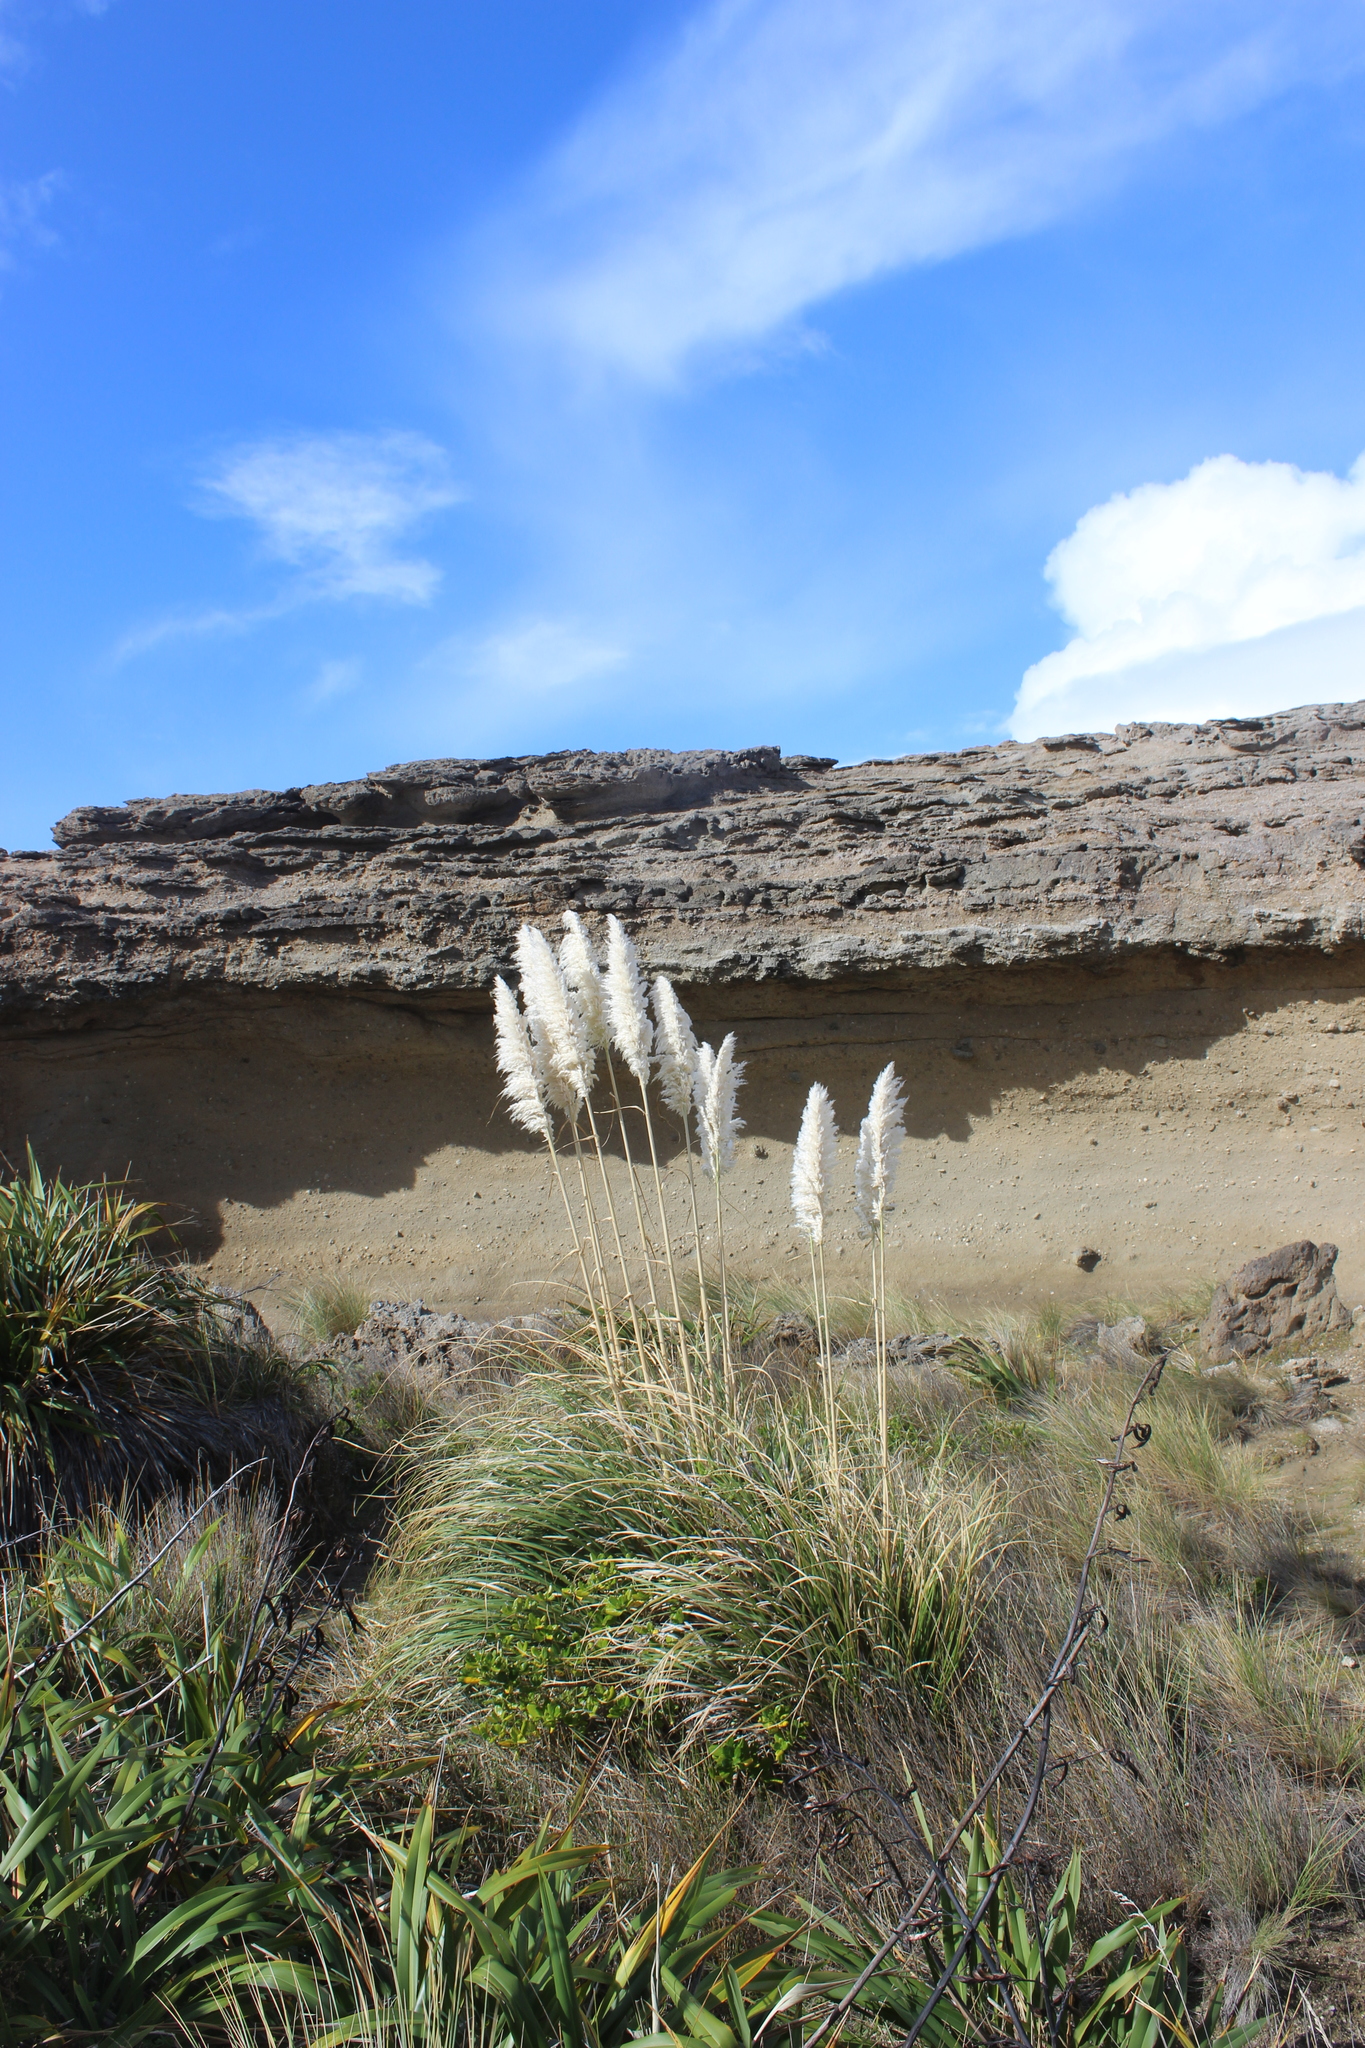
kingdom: Plantae
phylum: Tracheophyta
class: Liliopsida
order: Poales
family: Poaceae
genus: Cortaderia
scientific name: Cortaderia selloana
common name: Uruguayan pampas grass
